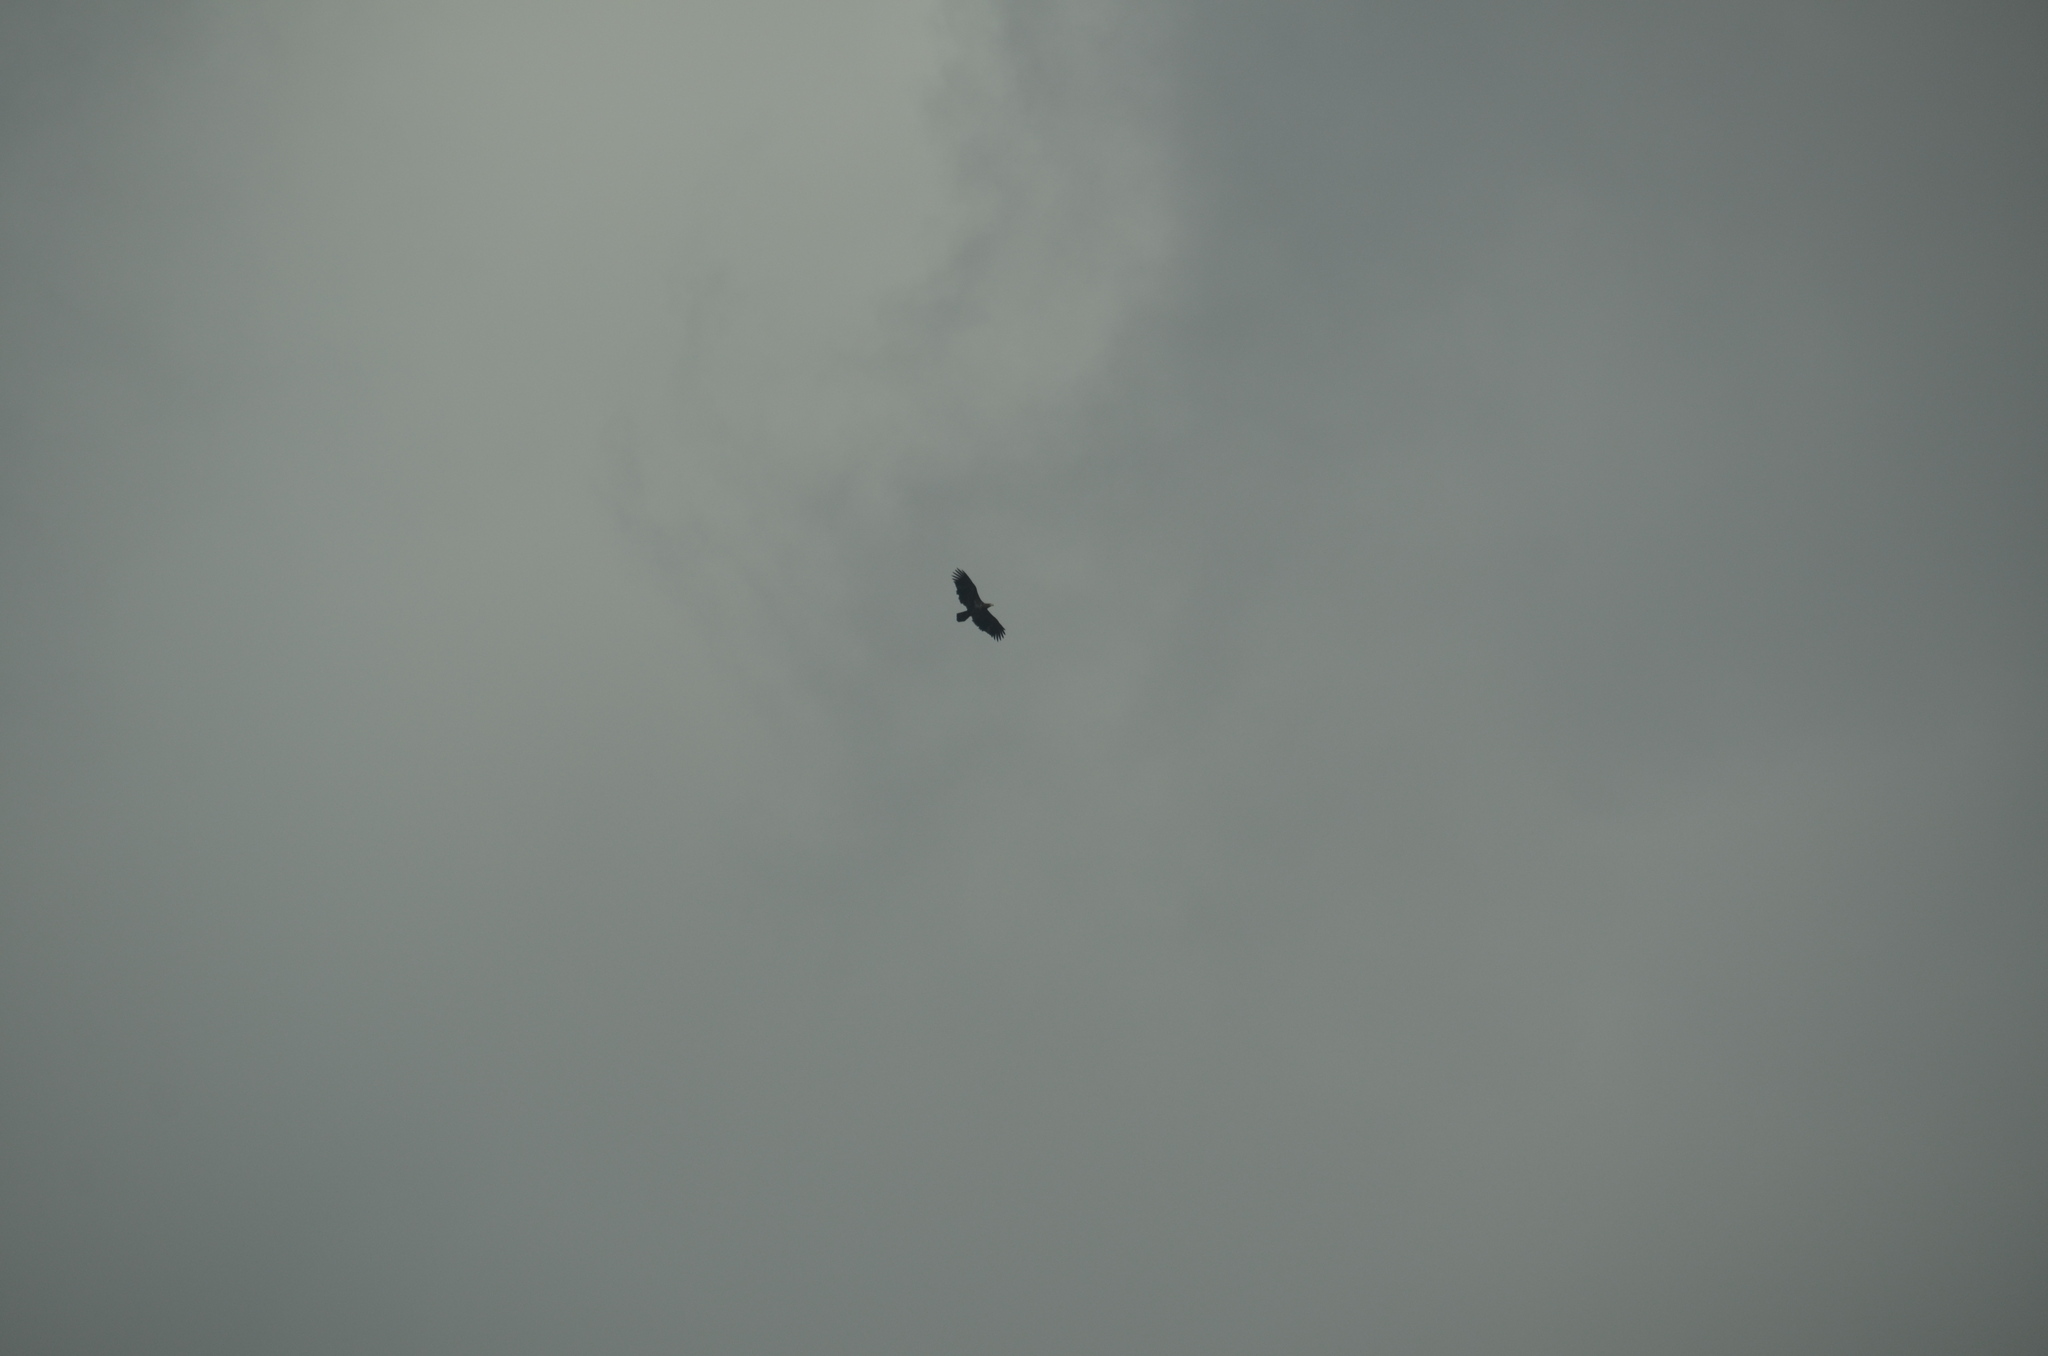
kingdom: Animalia
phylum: Chordata
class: Aves
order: Accipitriformes
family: Accipitridae
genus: Haliaeetus
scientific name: Haliaeetus leucocephalus
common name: Bald eagle
